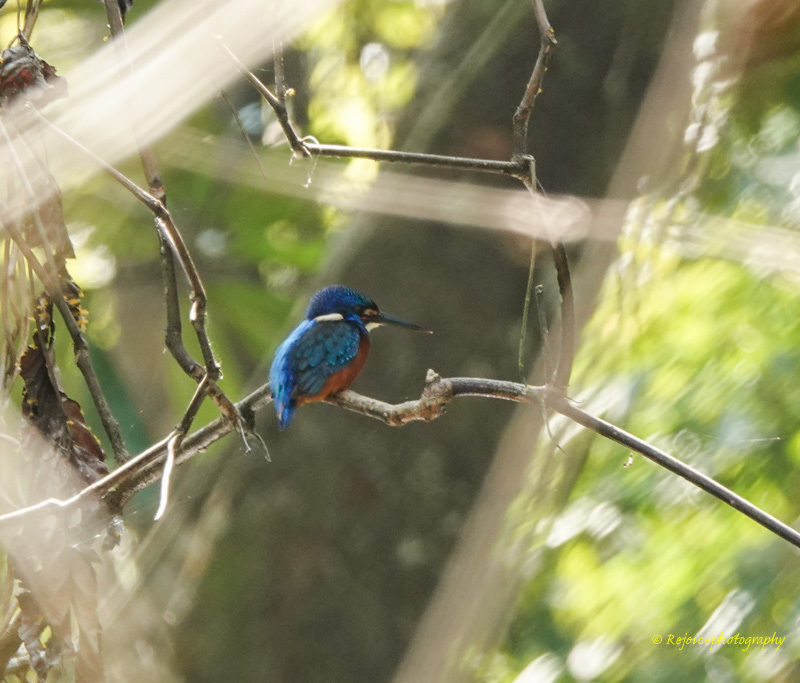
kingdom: Animalia
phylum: Chordata
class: Aves
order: Coraciiformes
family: Alcedinidae
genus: Alcedo
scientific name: Alcedo meninting
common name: Blue-eared kingfisher
